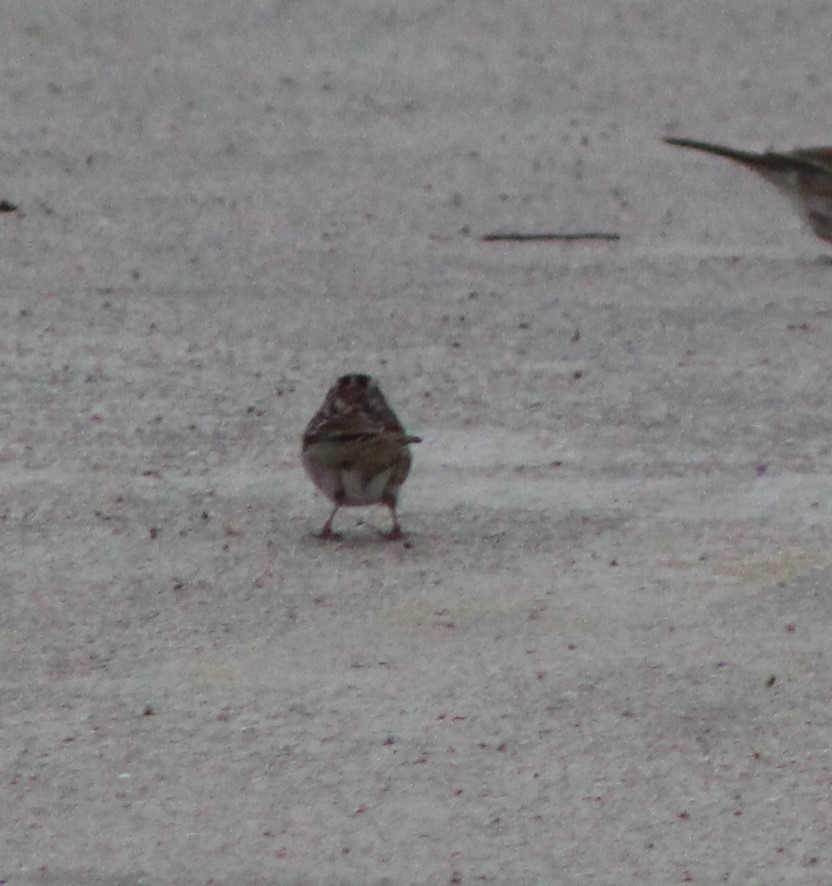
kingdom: Animalia
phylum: Chordata
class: Aves
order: Passeriformes
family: Passerellidae
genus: Zonotrichia
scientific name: Zonotrichia albicollis
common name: White-throated sparrow
